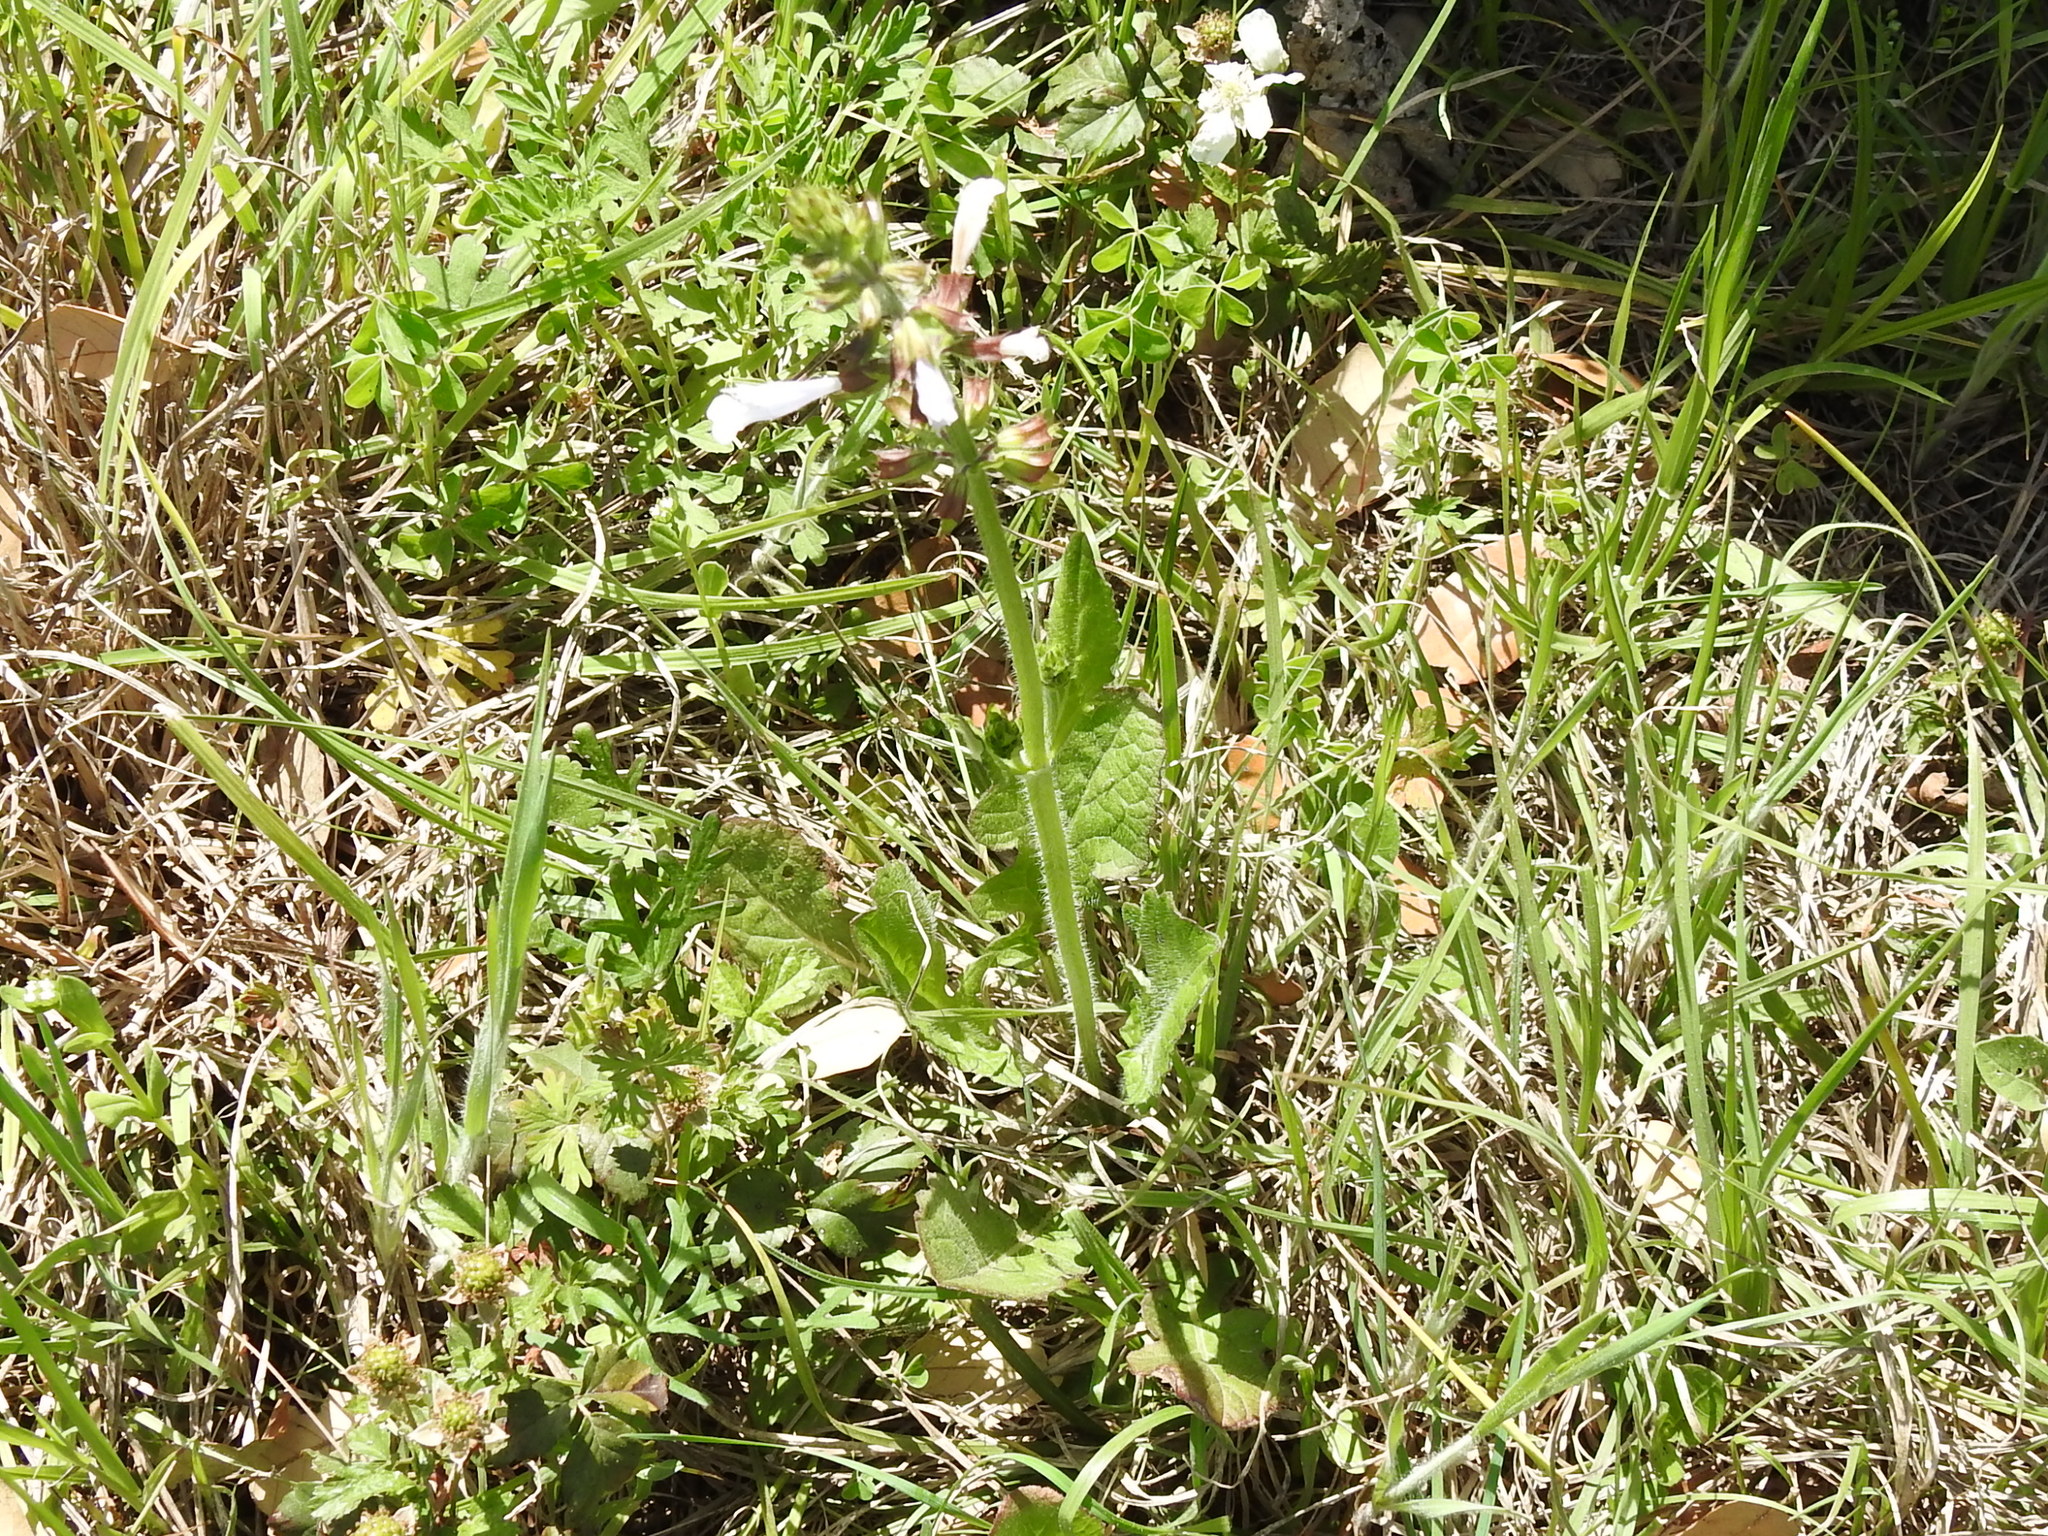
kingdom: Plantae
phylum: Tracheophyta
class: Magnoliopsida
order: Lamiales
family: Lamiaceae
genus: Salvia
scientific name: Salvia lyrata
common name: Cancerweed
